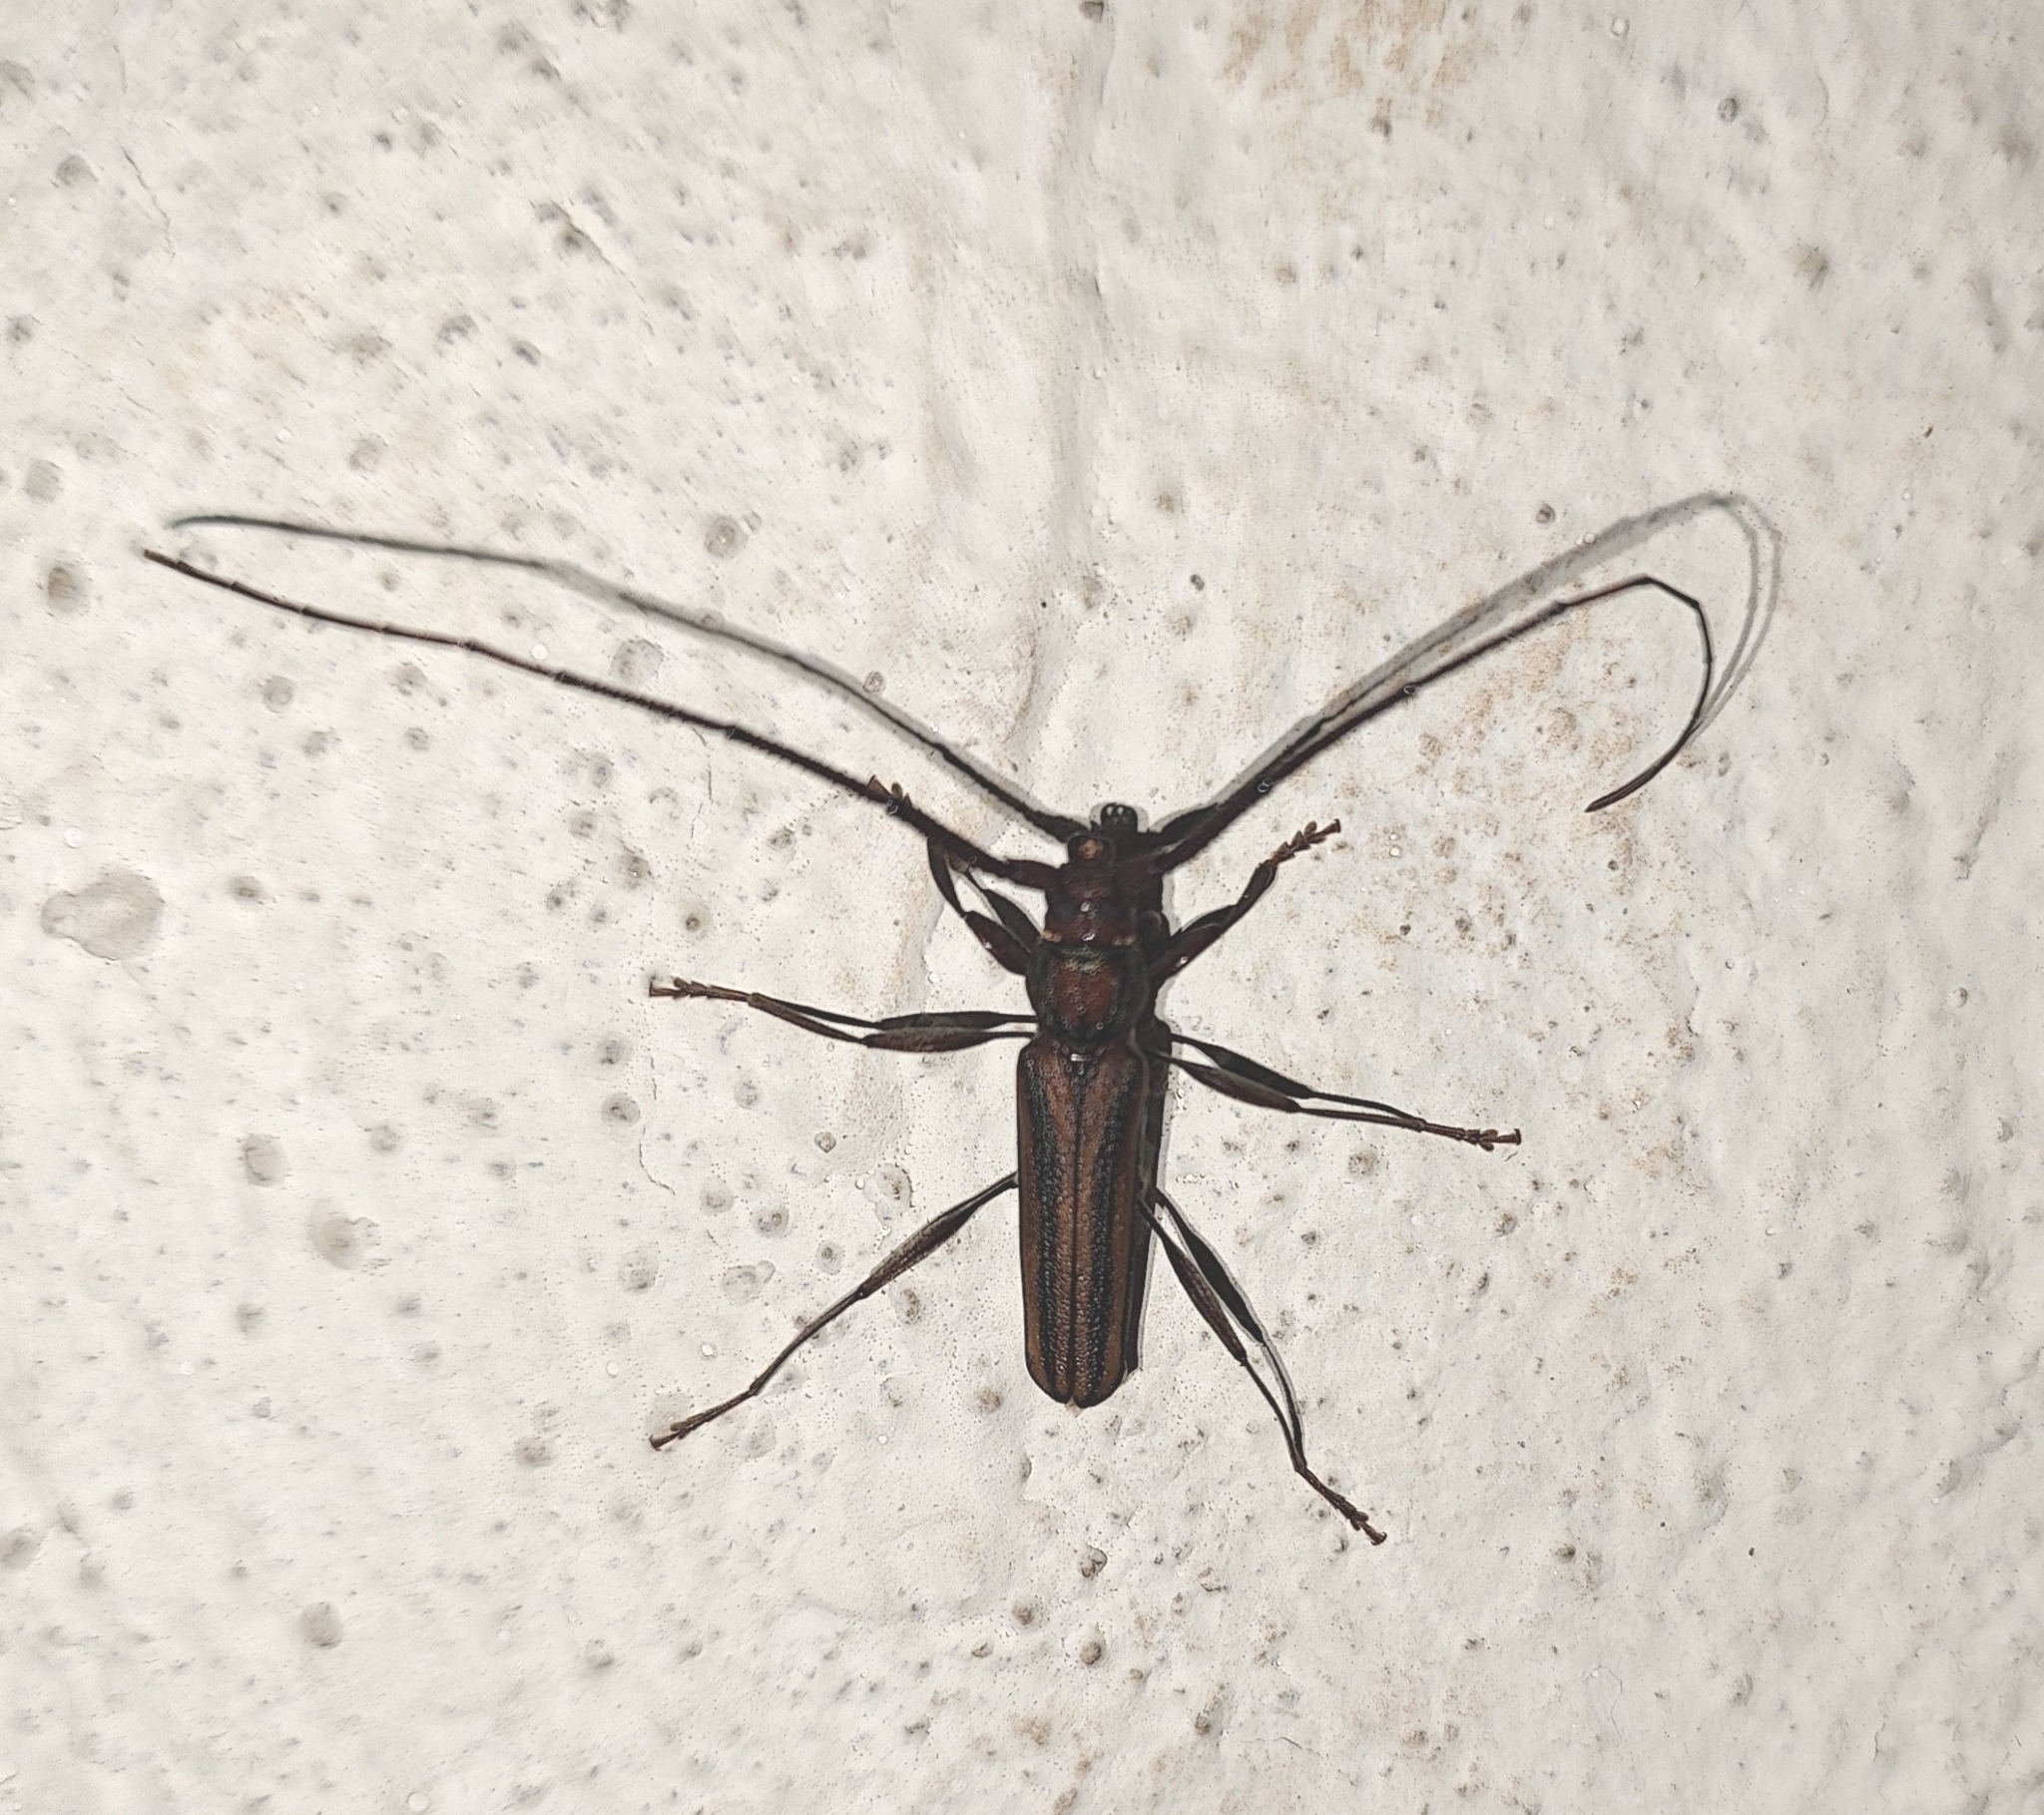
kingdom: Animalia
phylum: Arthropoda
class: Insecta
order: Coleoptera
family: Cerambycidae
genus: Xystrocera
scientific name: Xystrocera globosa
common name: Peach-tree longhorn
